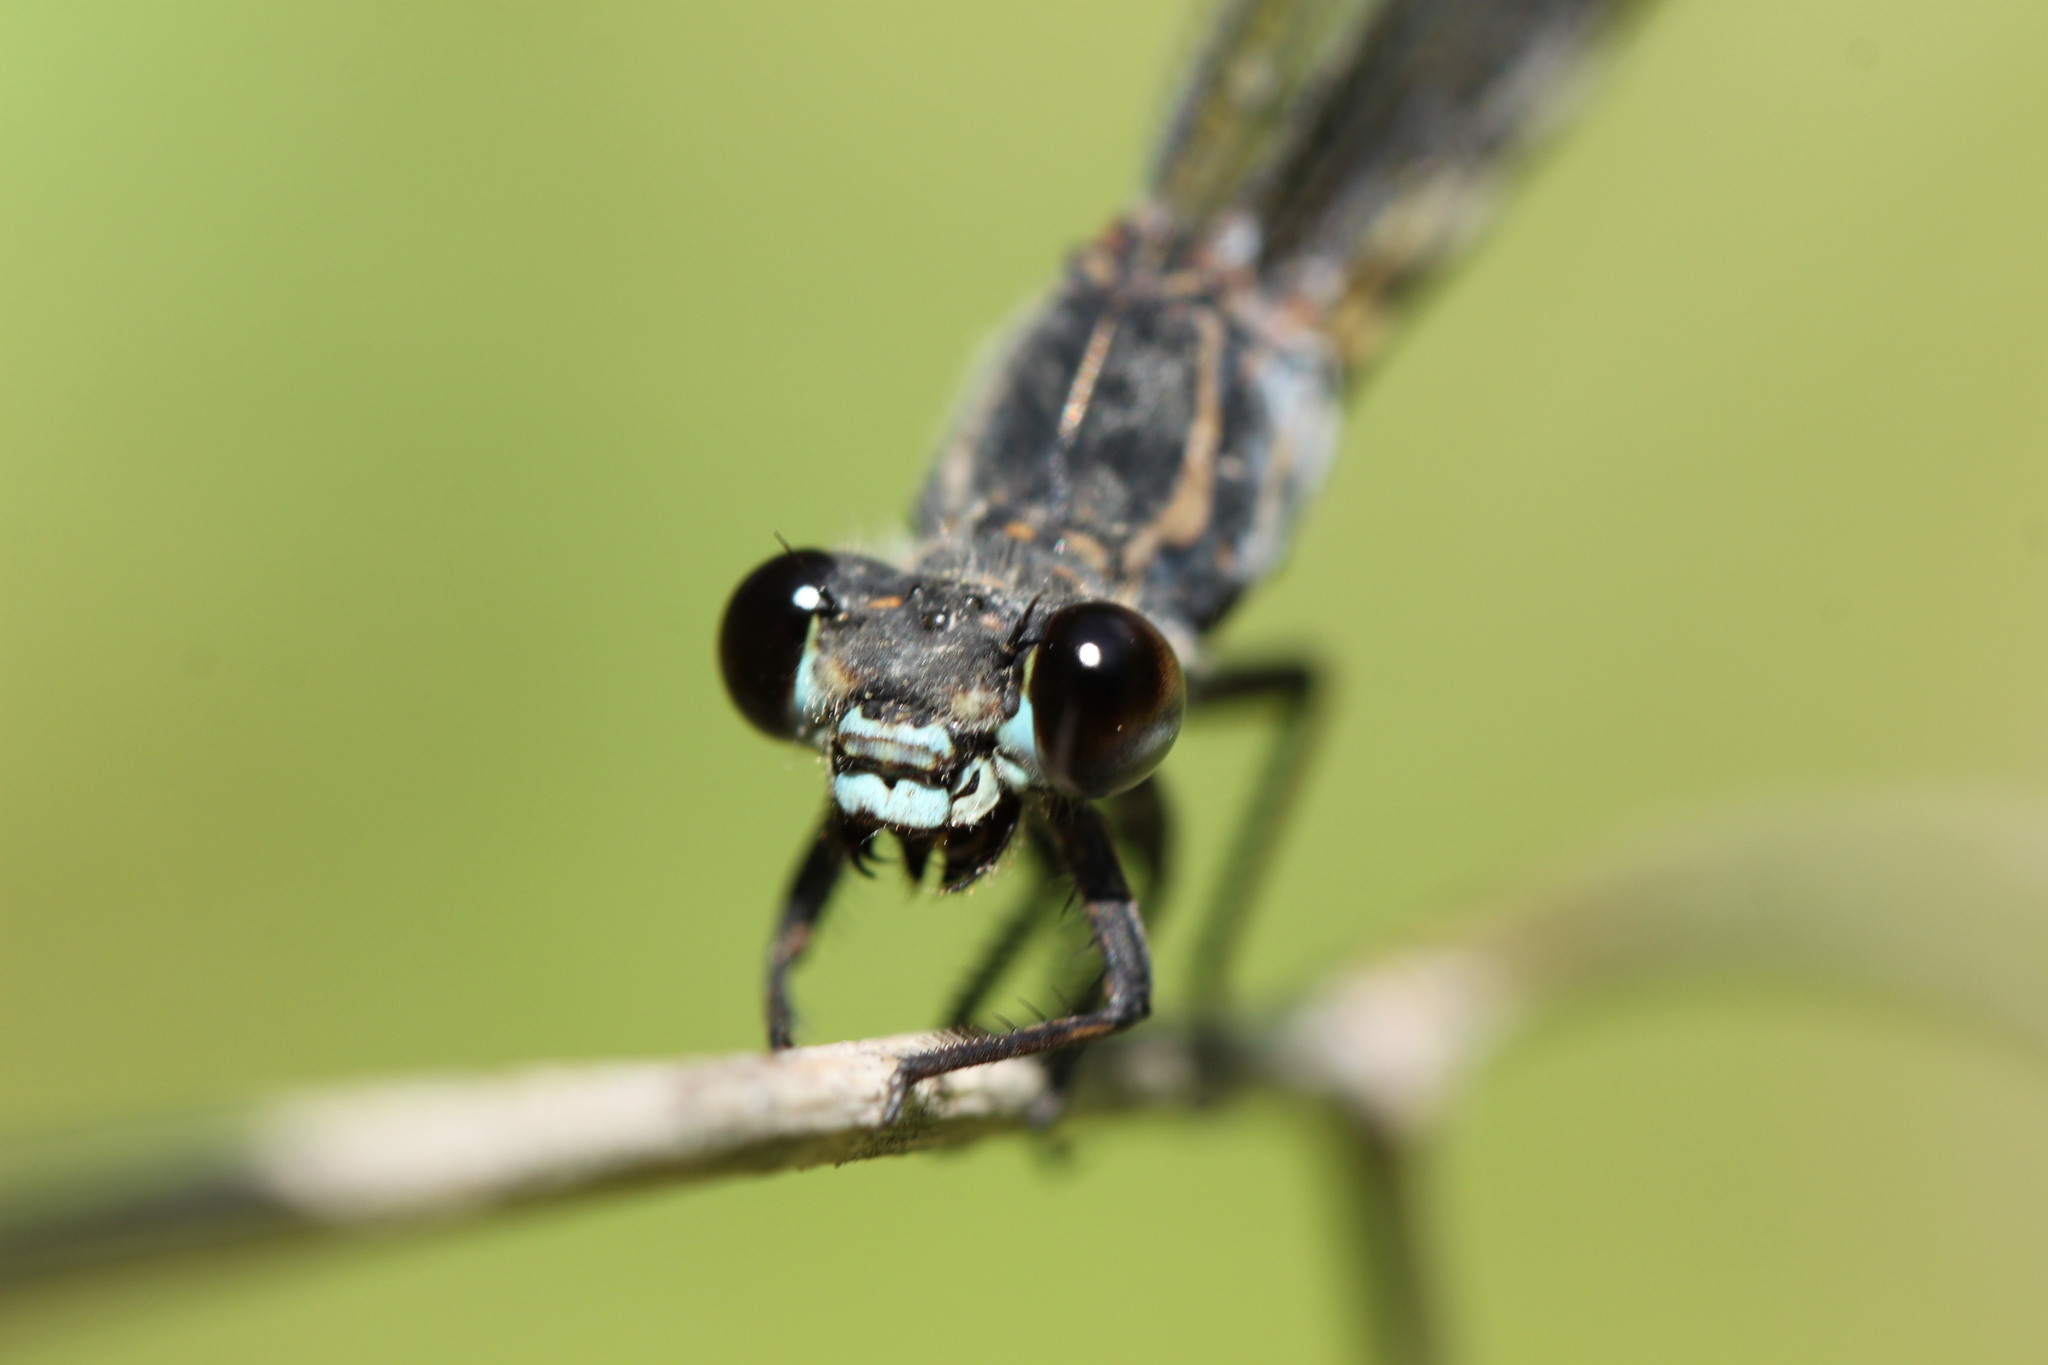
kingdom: Animalia
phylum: Arthropoda
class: Insecta
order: Odonata
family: Euphaeidae
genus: Epallage
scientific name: Epallage fatime
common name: Odalisque
